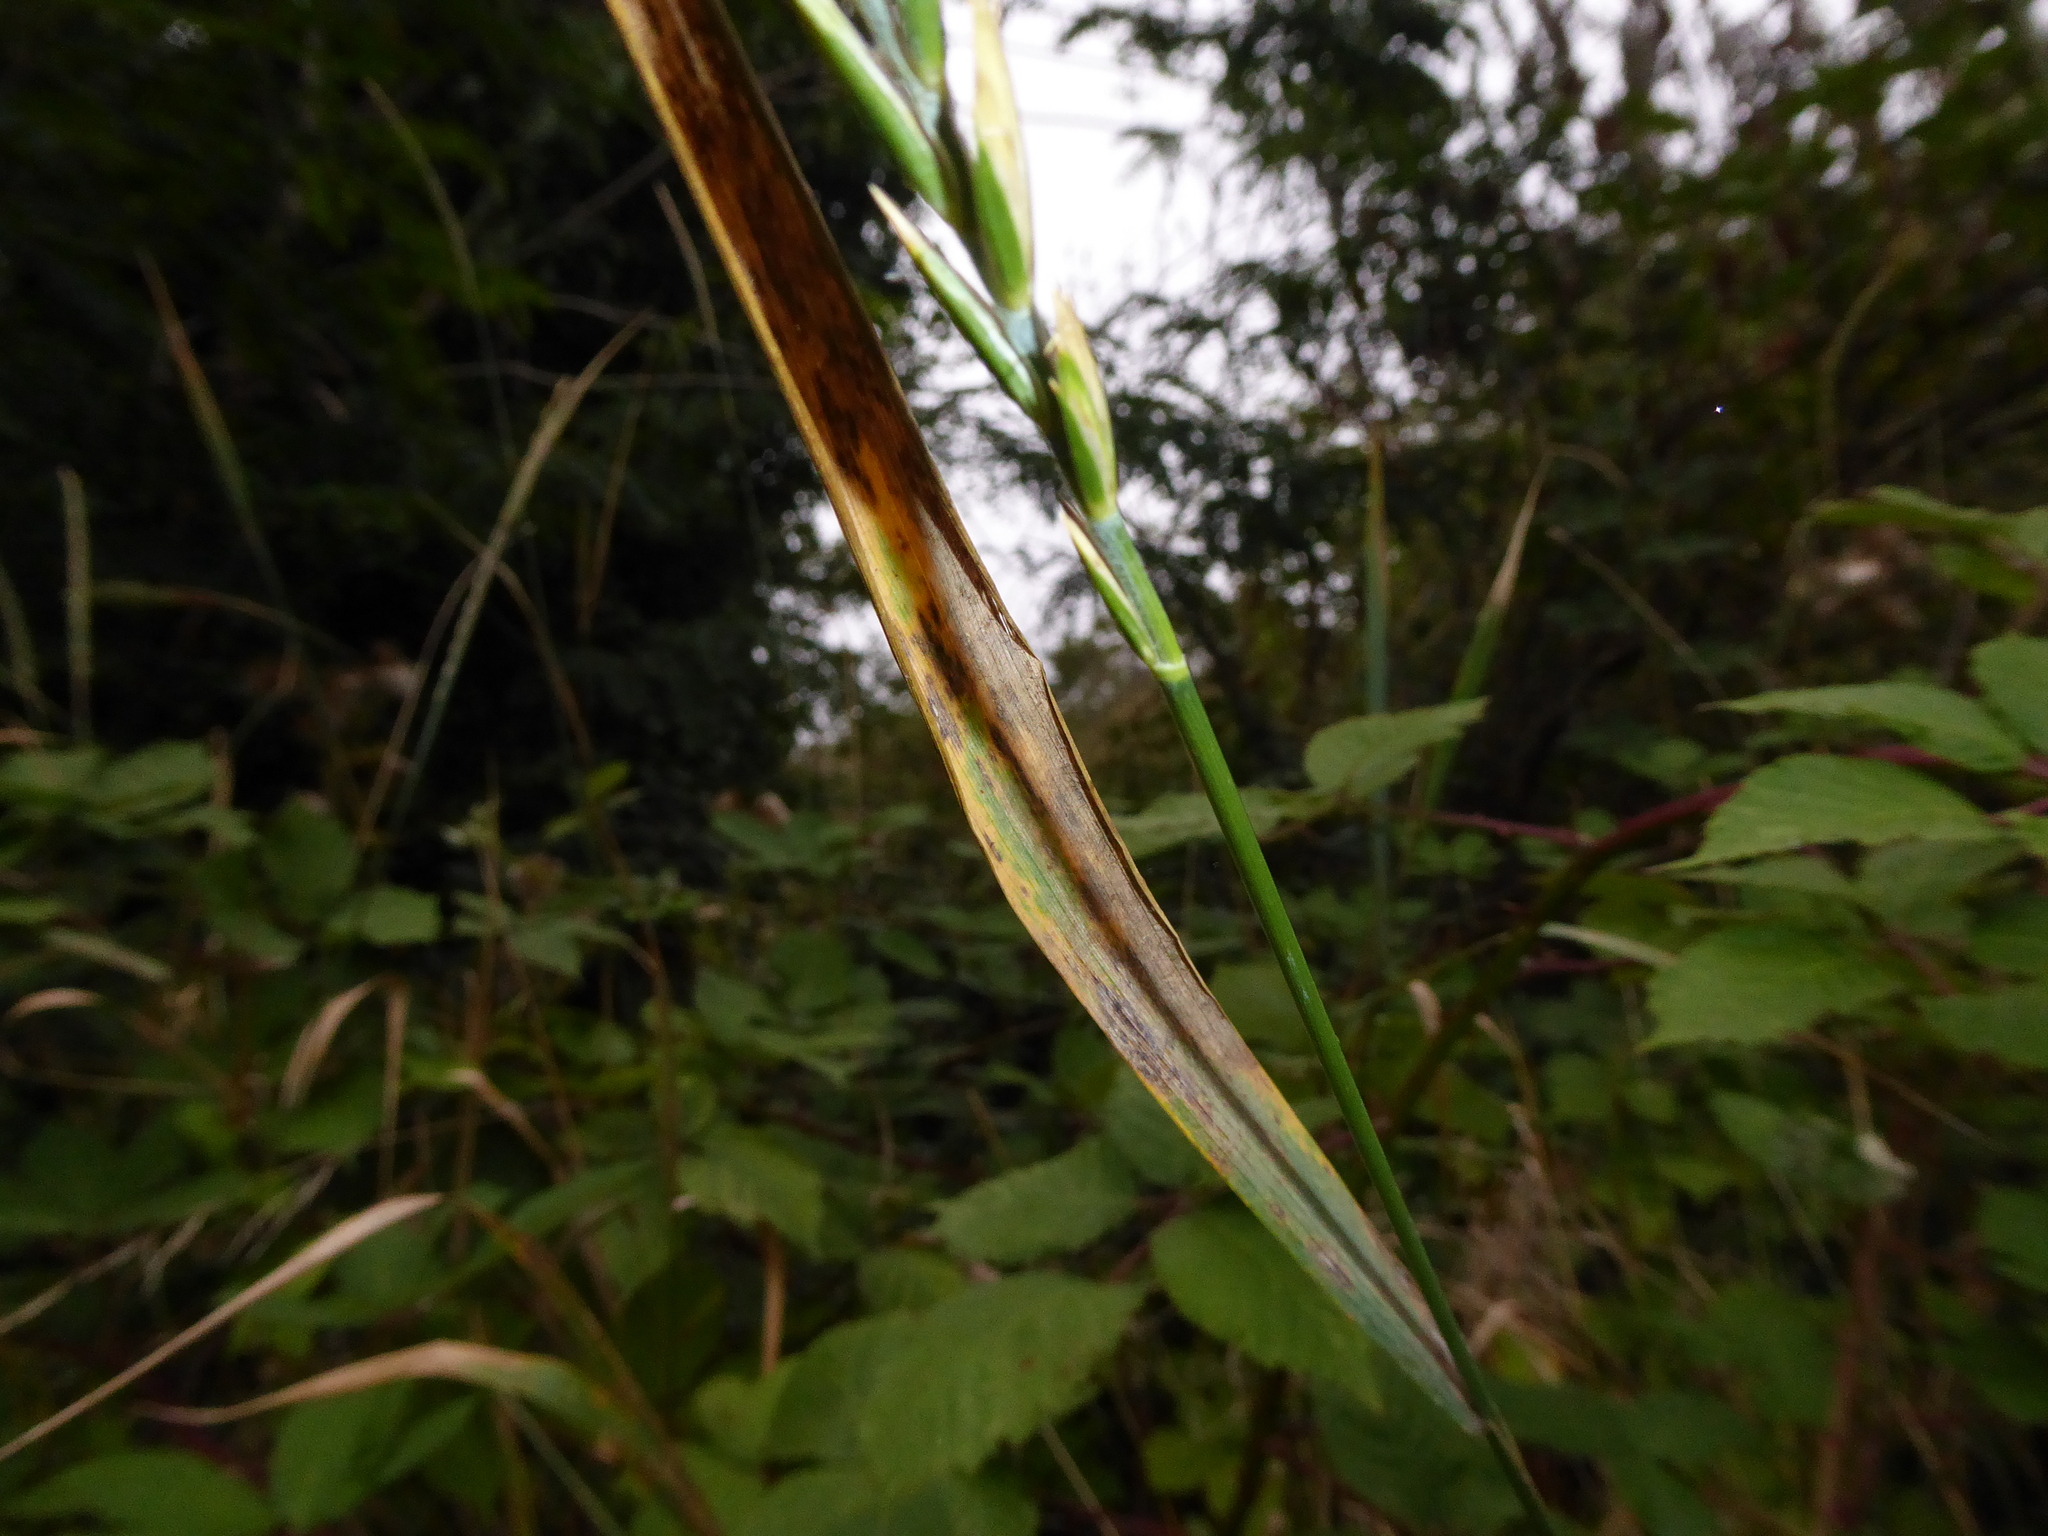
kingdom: Plantae
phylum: Tracheophyta
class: Liliopsida
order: Poales
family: Poaceae
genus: Elymus
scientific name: Elymus repens
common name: Quackgrass
